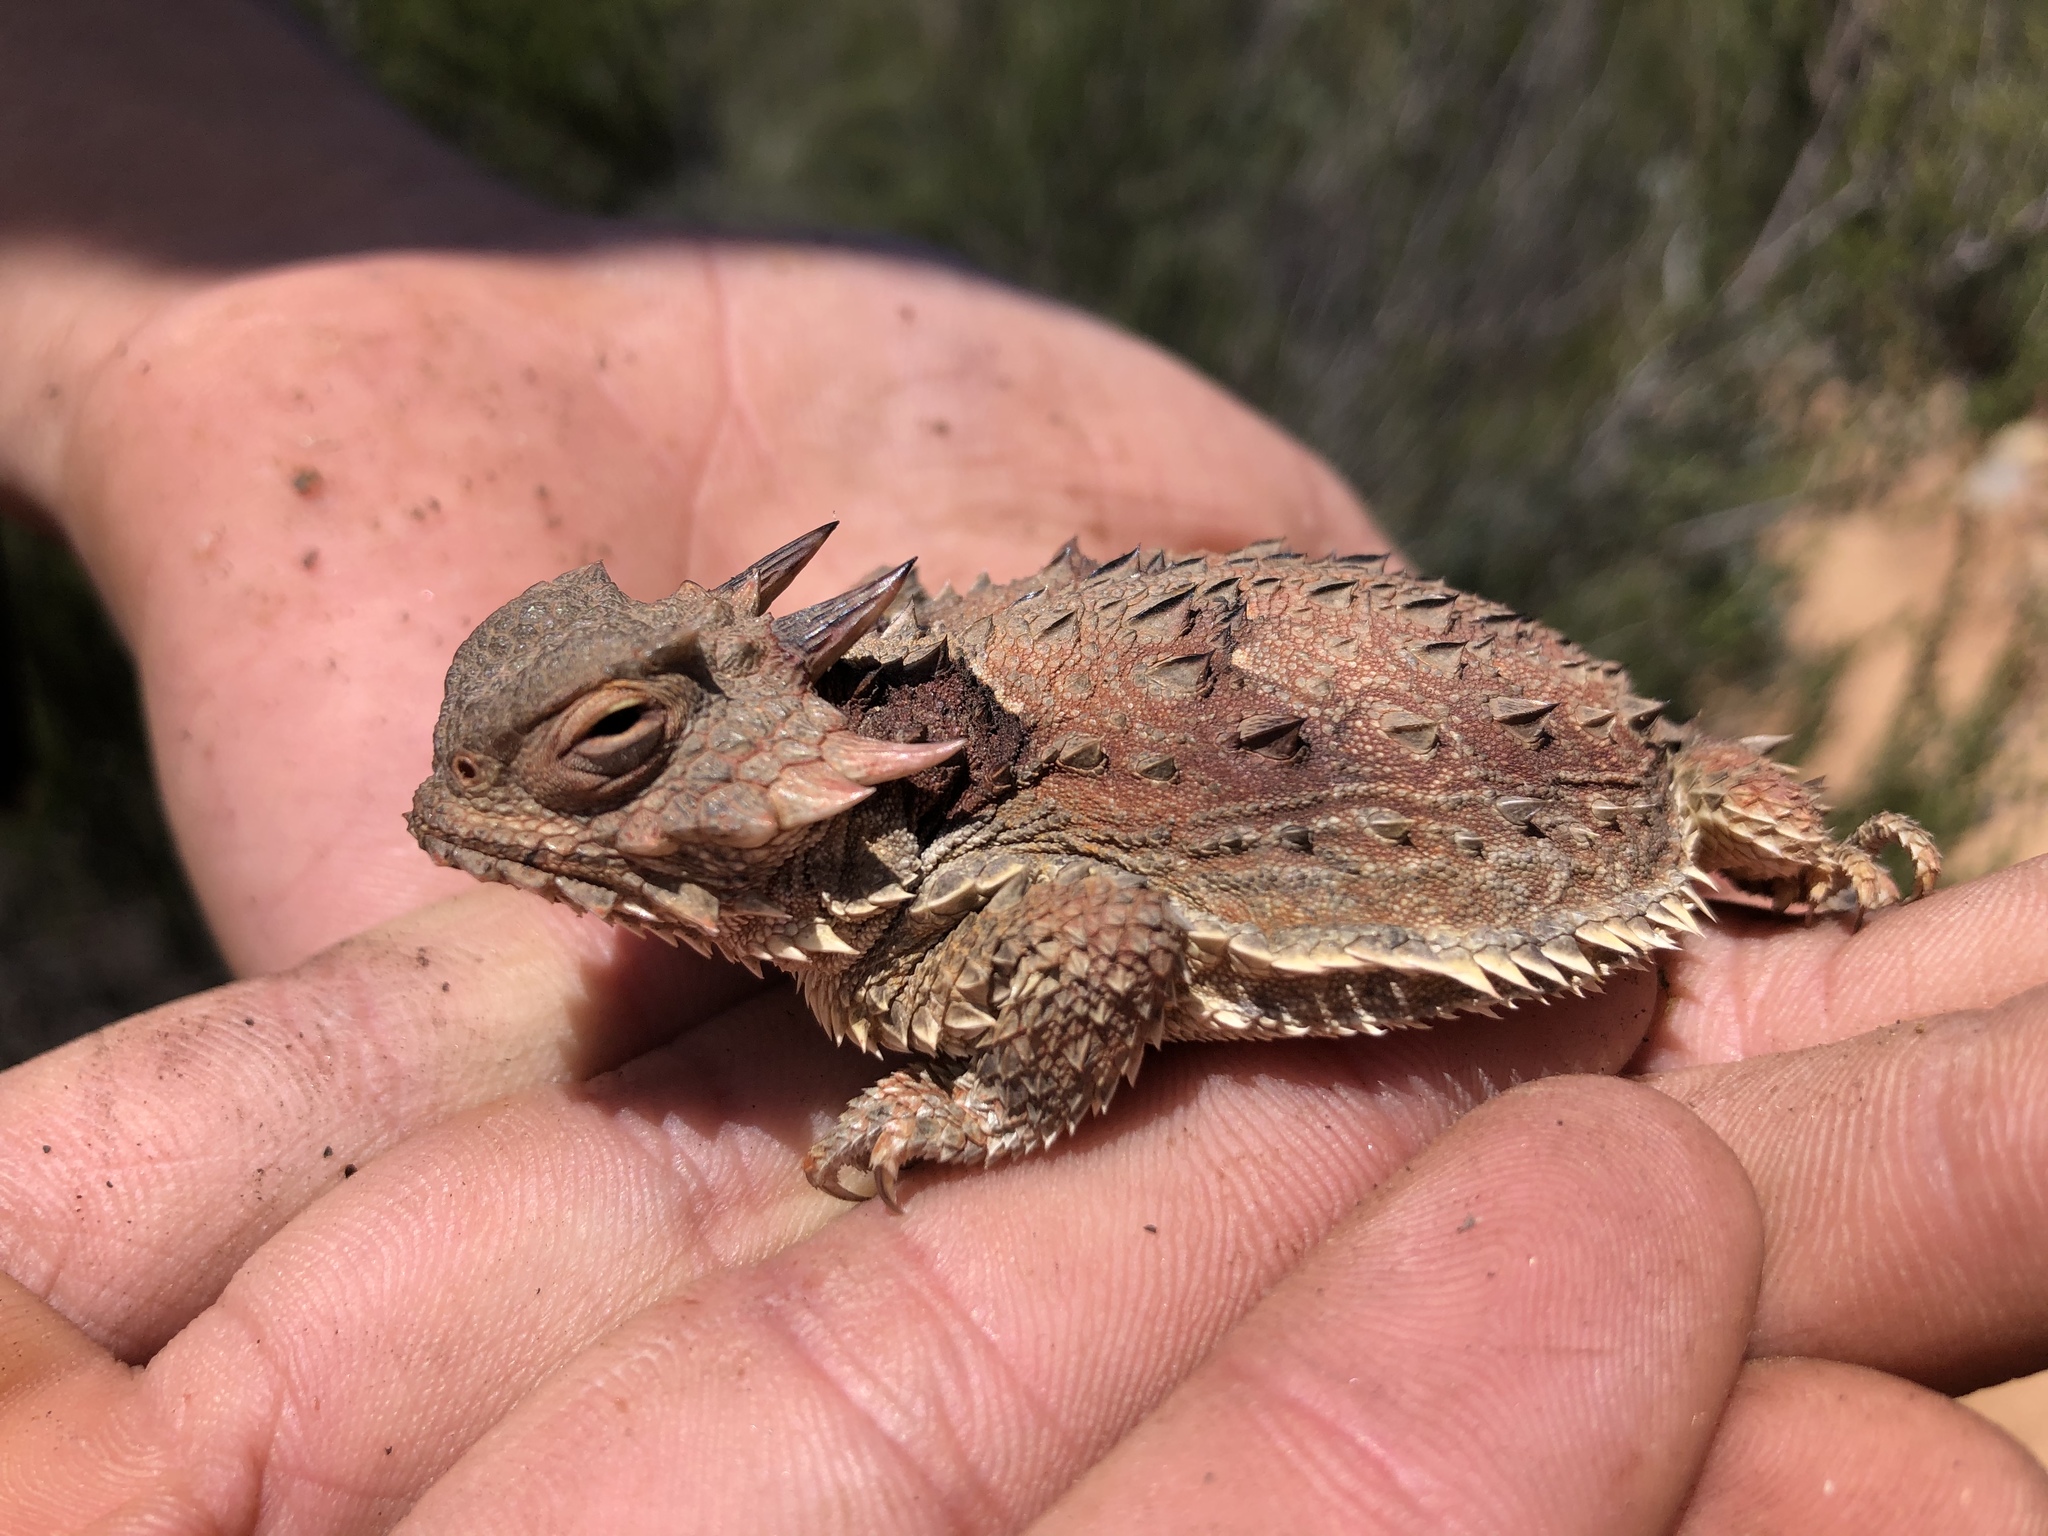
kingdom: Animalia
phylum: Chordata
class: Squamata
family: Phrynosomatidae
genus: Phrynosoma
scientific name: Phrynosoma blainvillii
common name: San diego horned lizard
